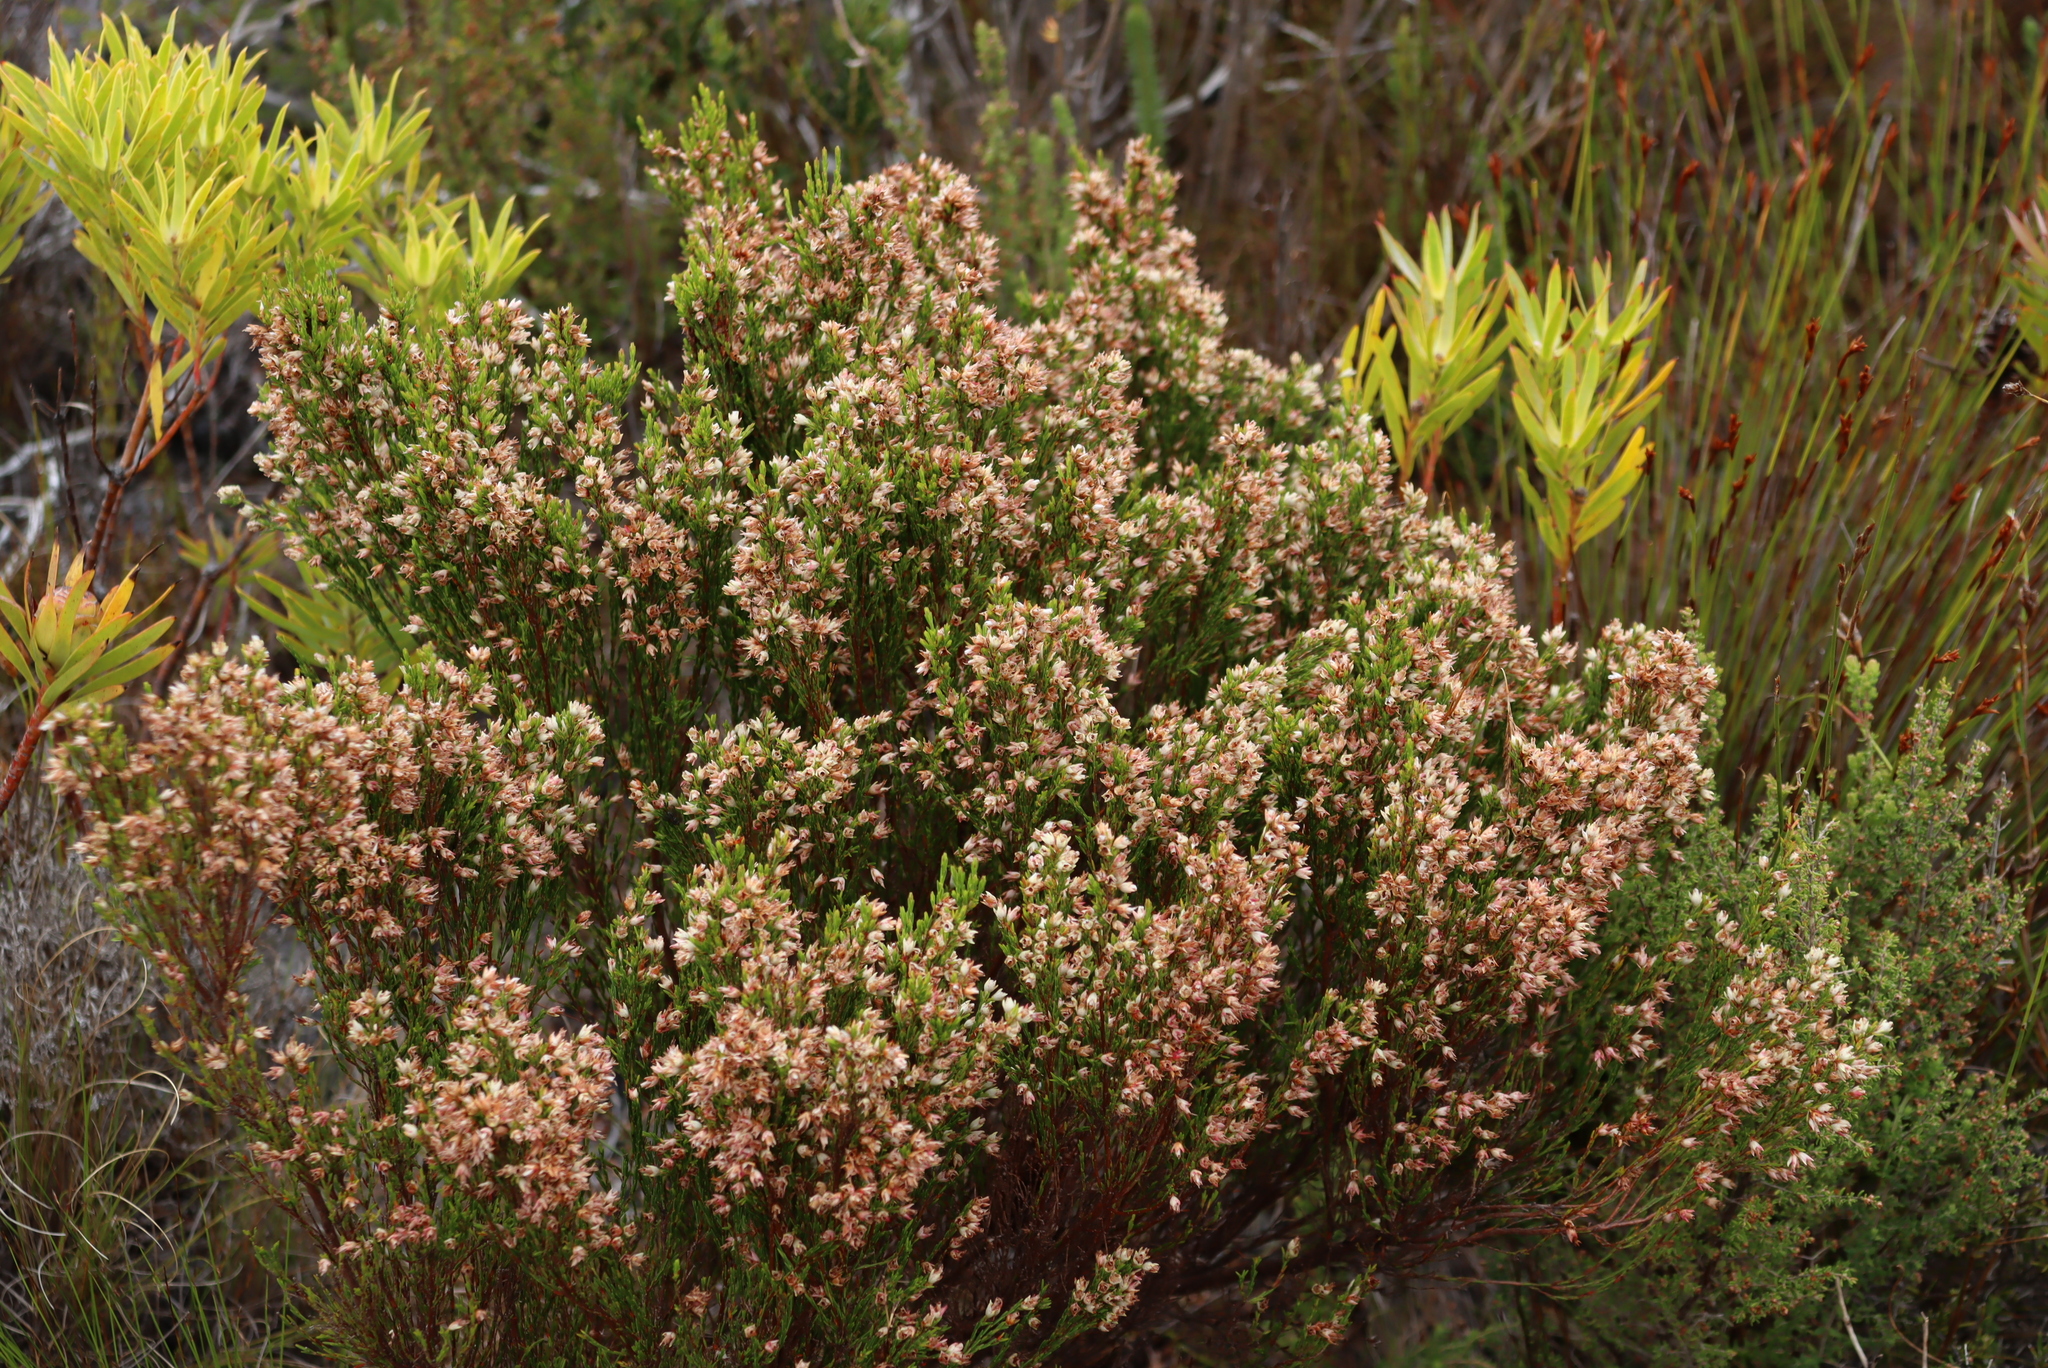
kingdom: Plantae
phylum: Tracheophyta
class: Magnoliopsida
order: Ericales
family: Ericaceae
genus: Erica
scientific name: Erica lutea
